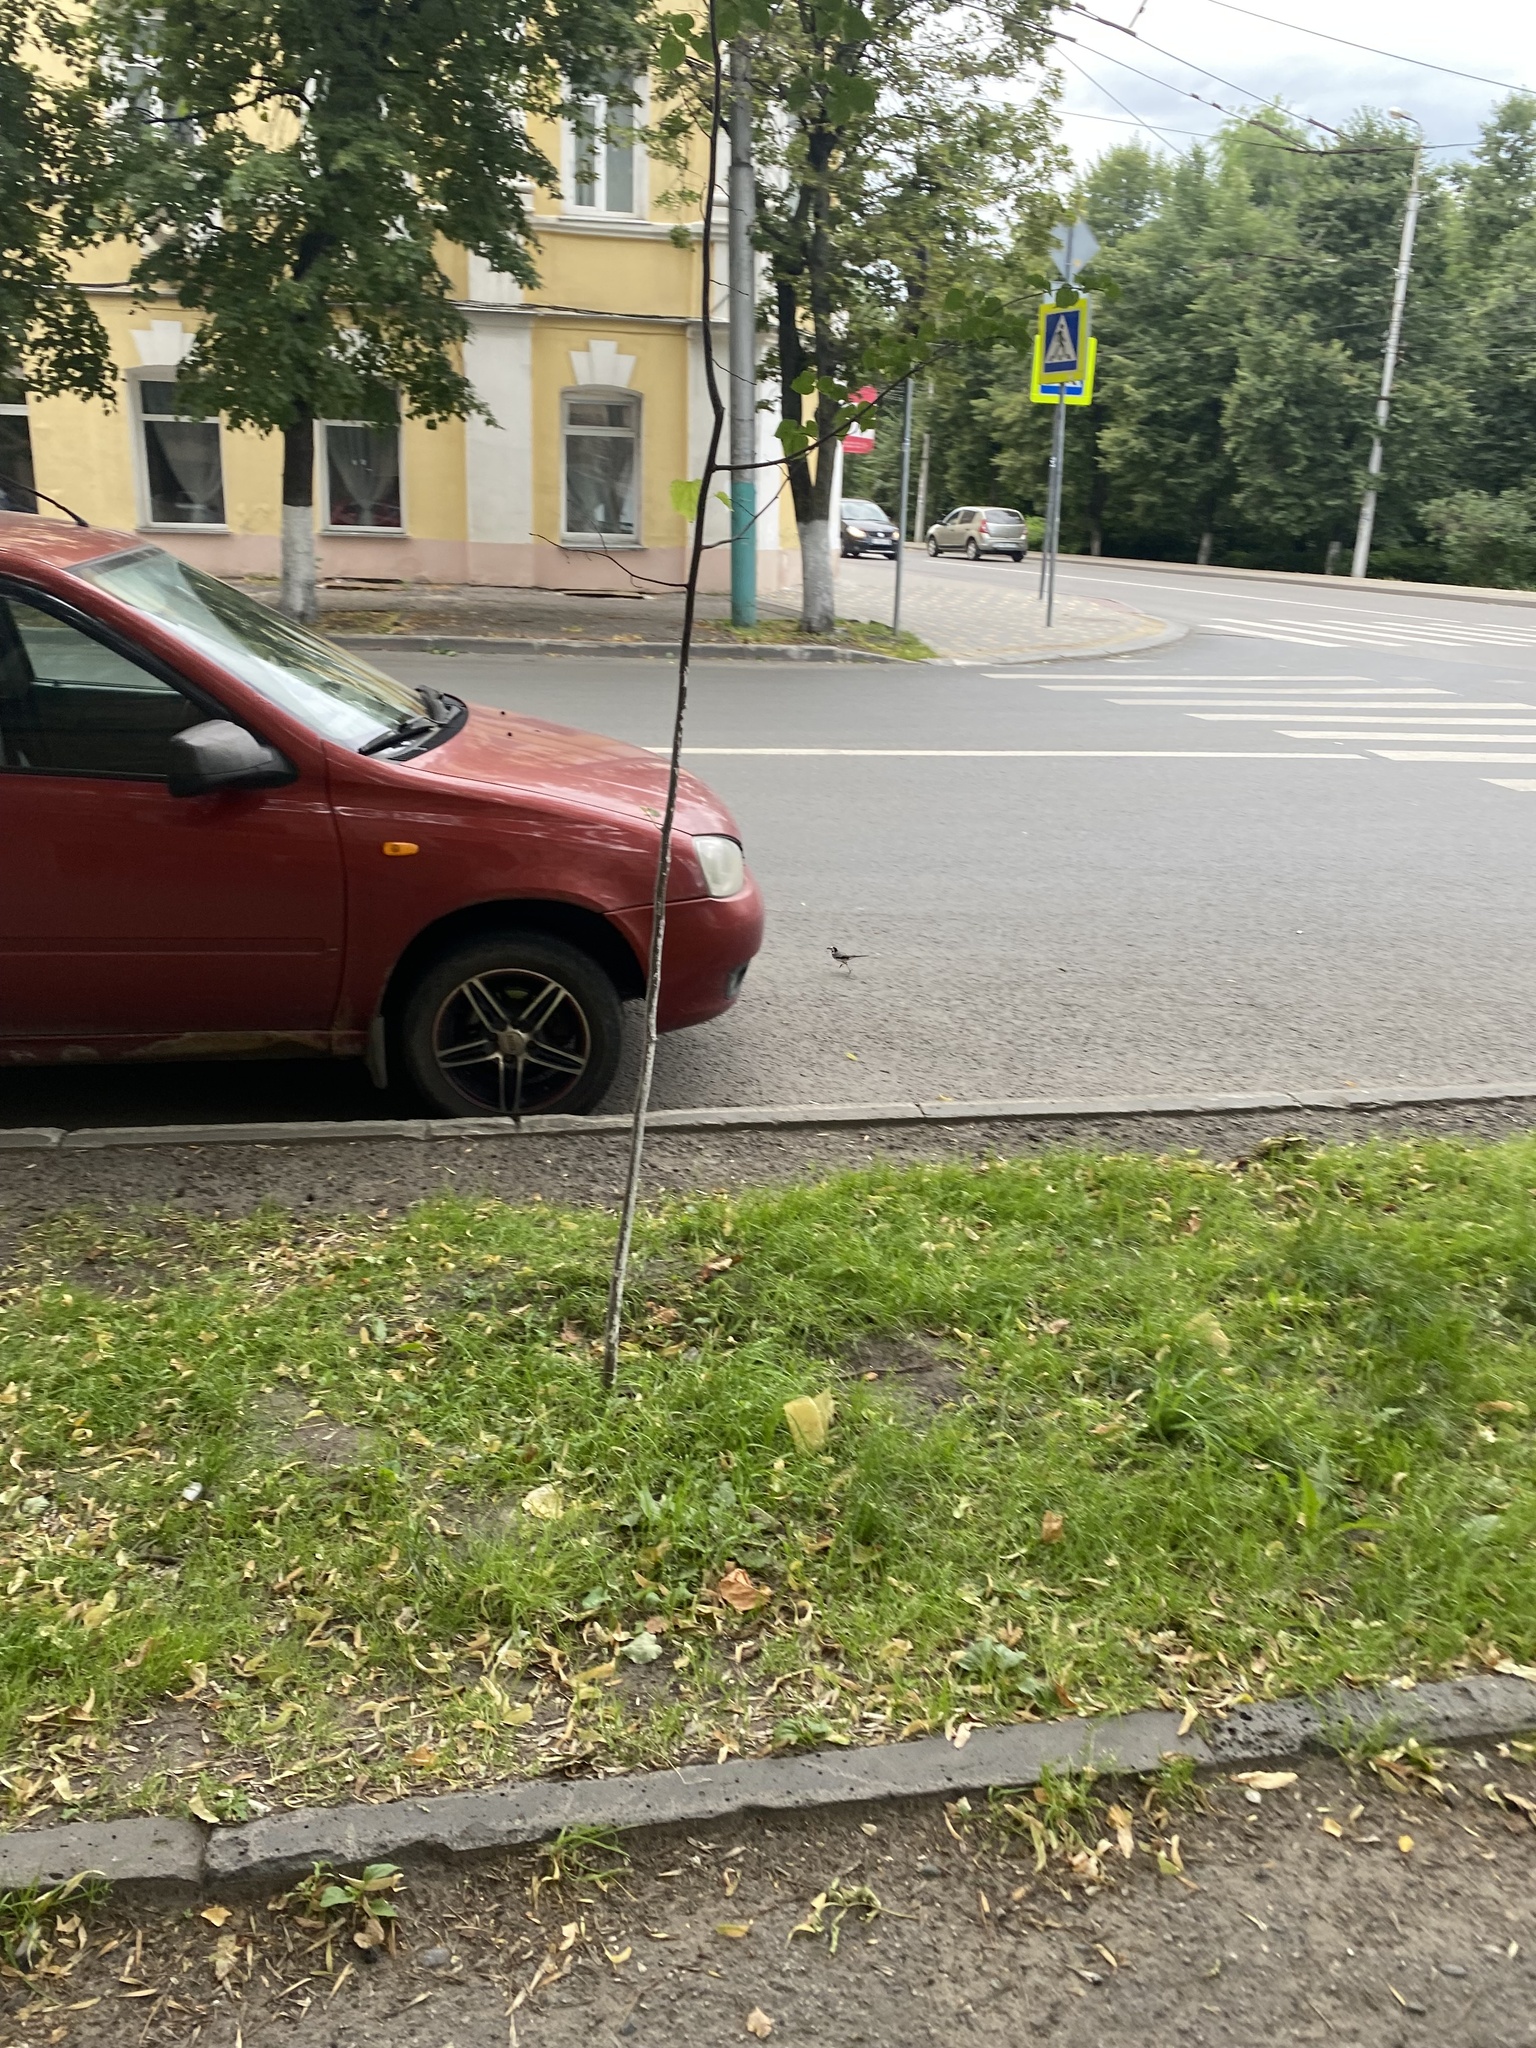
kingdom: Animalia
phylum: Chordata
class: Aves
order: Passeriformes
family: Motacillidae
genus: Motacilla
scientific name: Motacilla alba
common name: White wagtail
